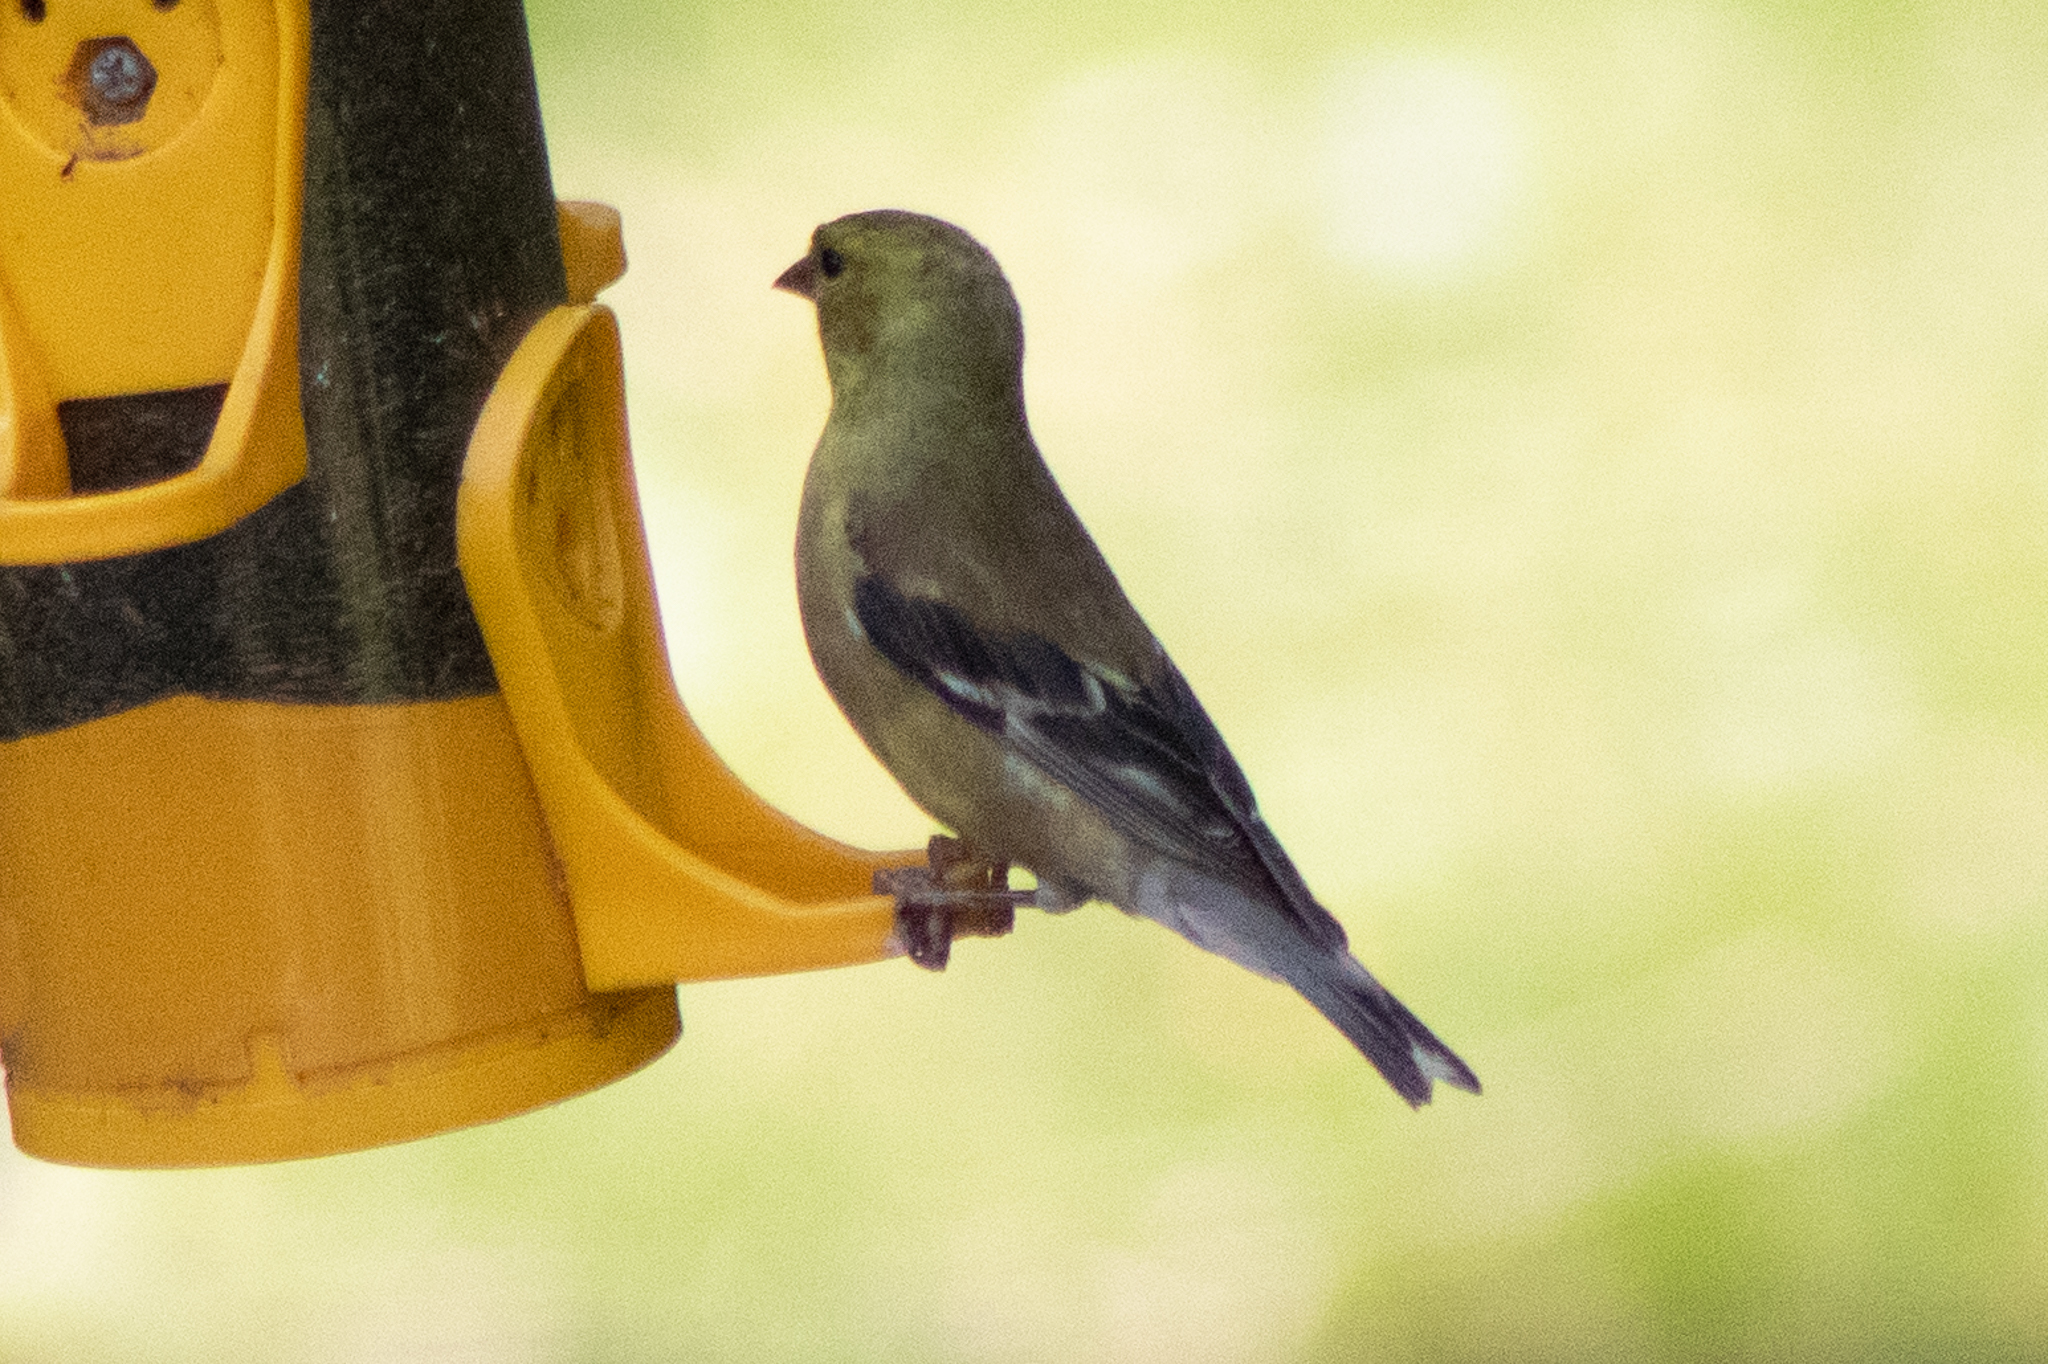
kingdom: Animalia
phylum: Chordata
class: Aves
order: Passeriformes
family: Fringillidae
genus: Spinus
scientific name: Spinus tristis
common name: American goldfinch
